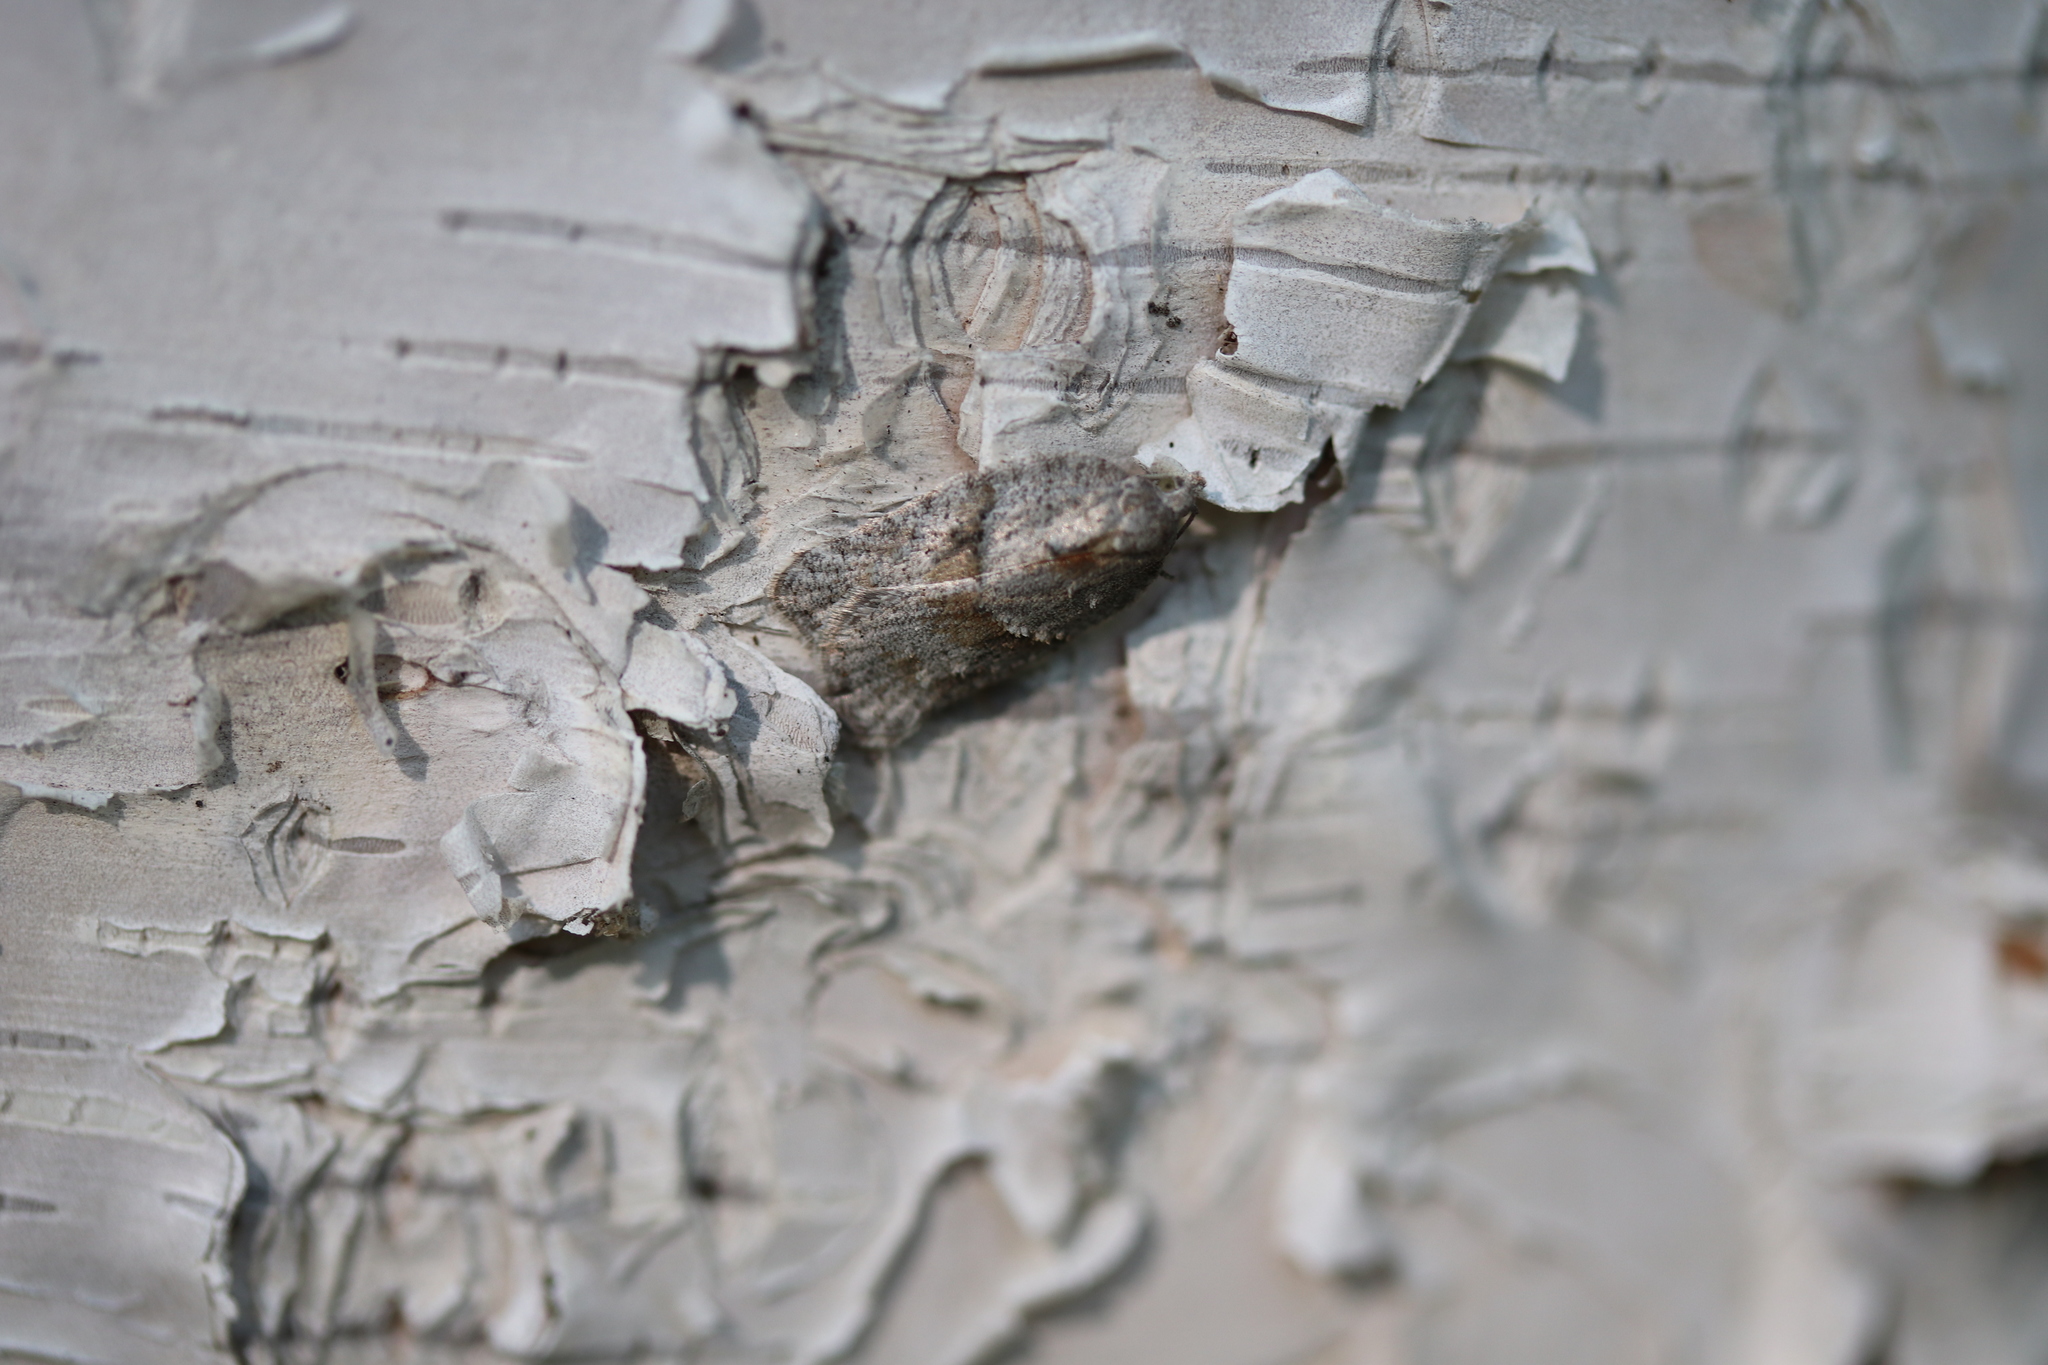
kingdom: Animalia
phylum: Arthropoda
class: Insecta
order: Lepidoptera
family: Tortricidae
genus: Acleris
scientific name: Acleris placidana
